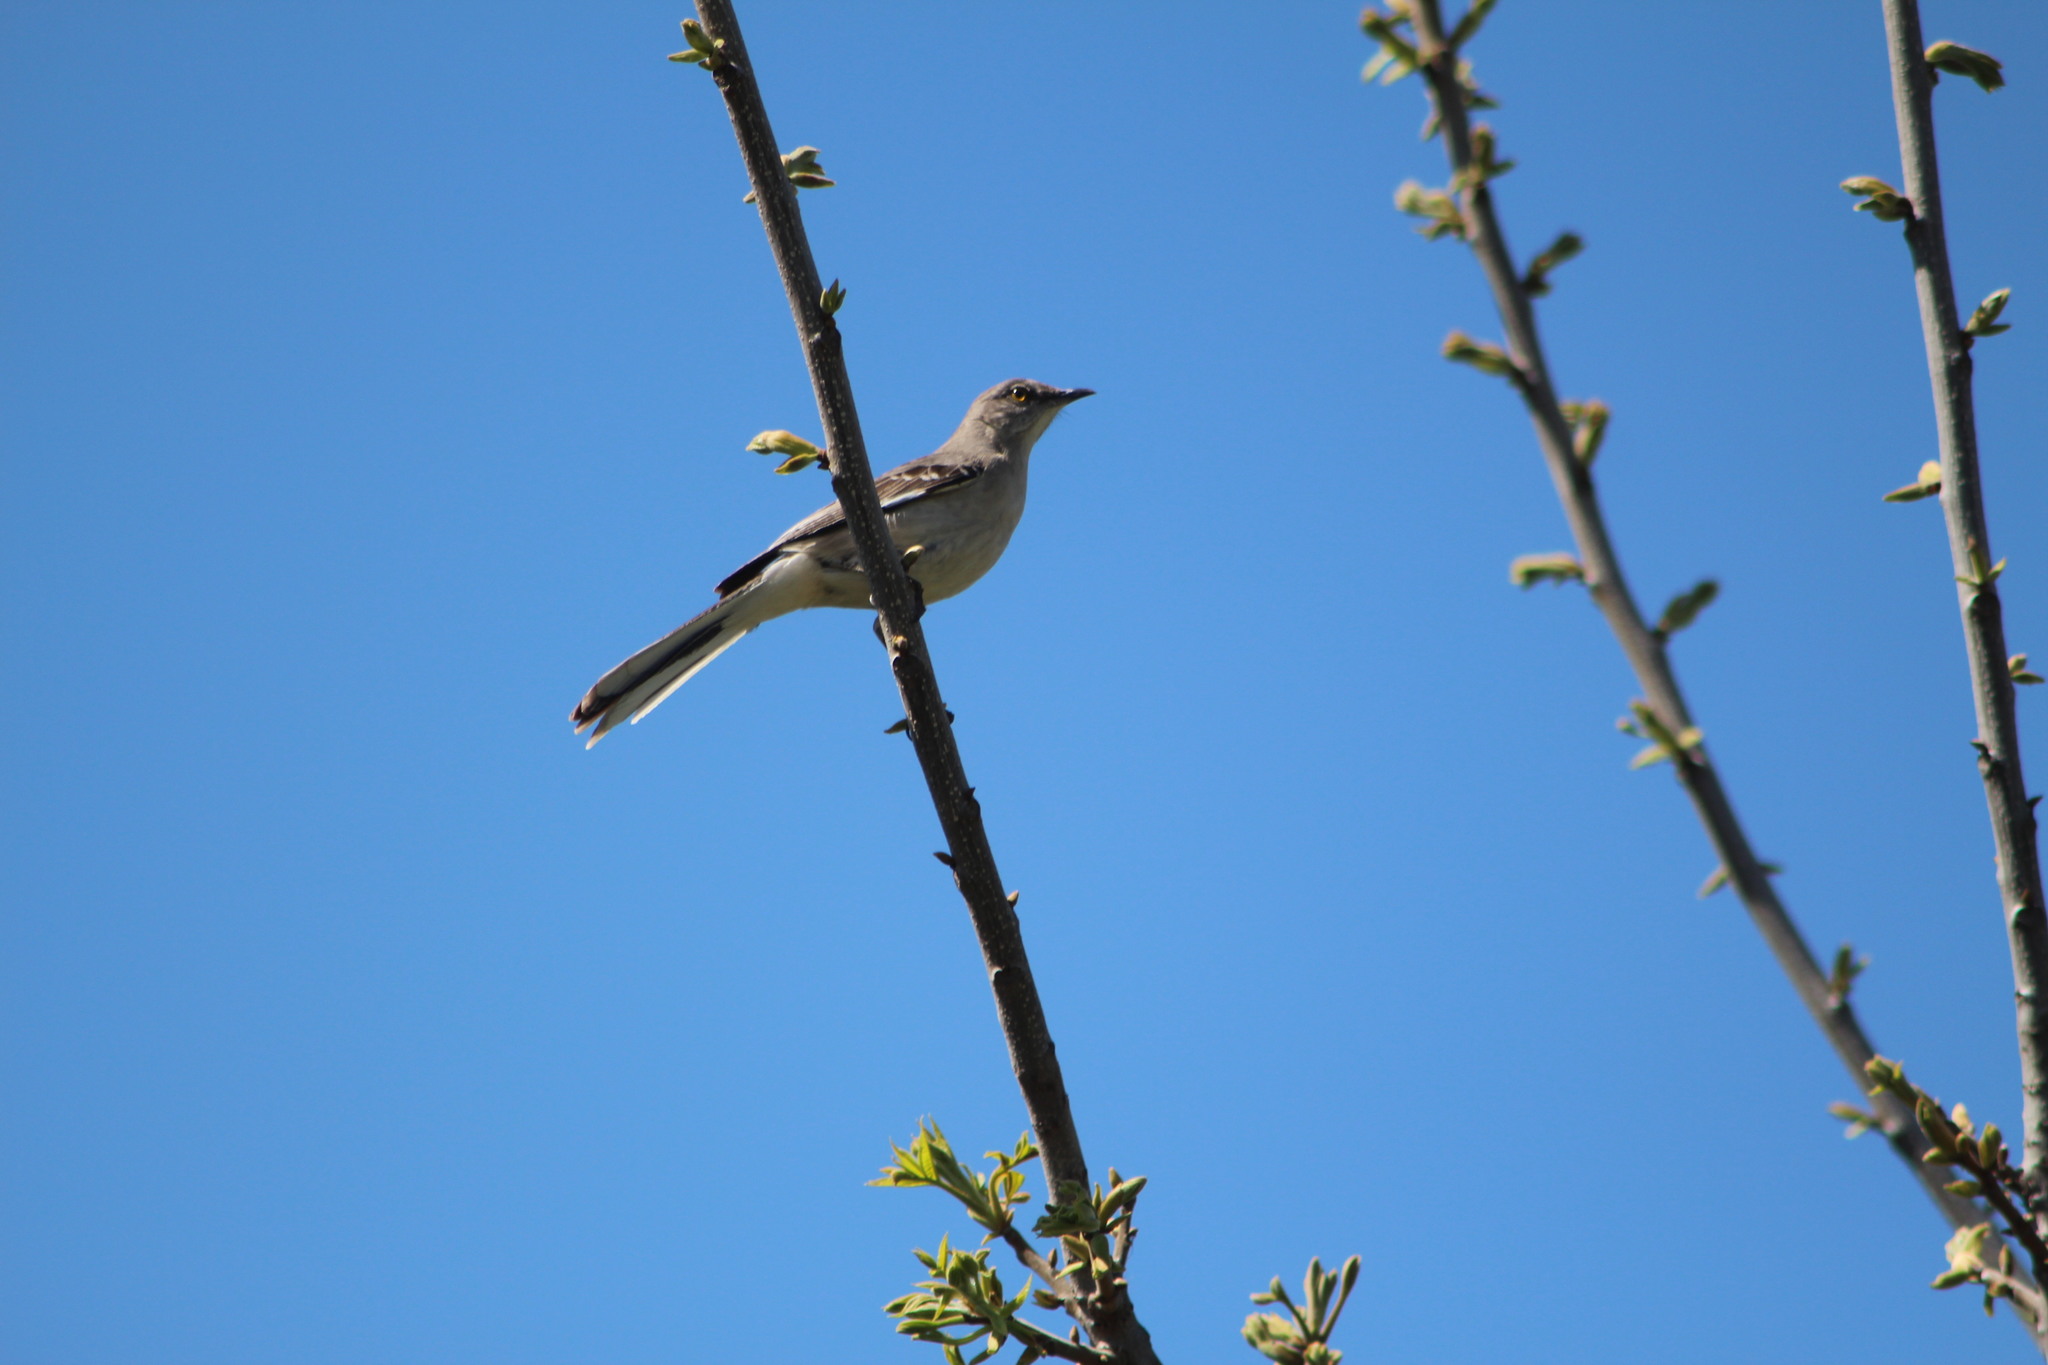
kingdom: Animalia
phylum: Chordata
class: Aves
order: Passeriformes
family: Mimidae
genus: Mimus
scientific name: Mimus polyglottos
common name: Northern mockingbird
